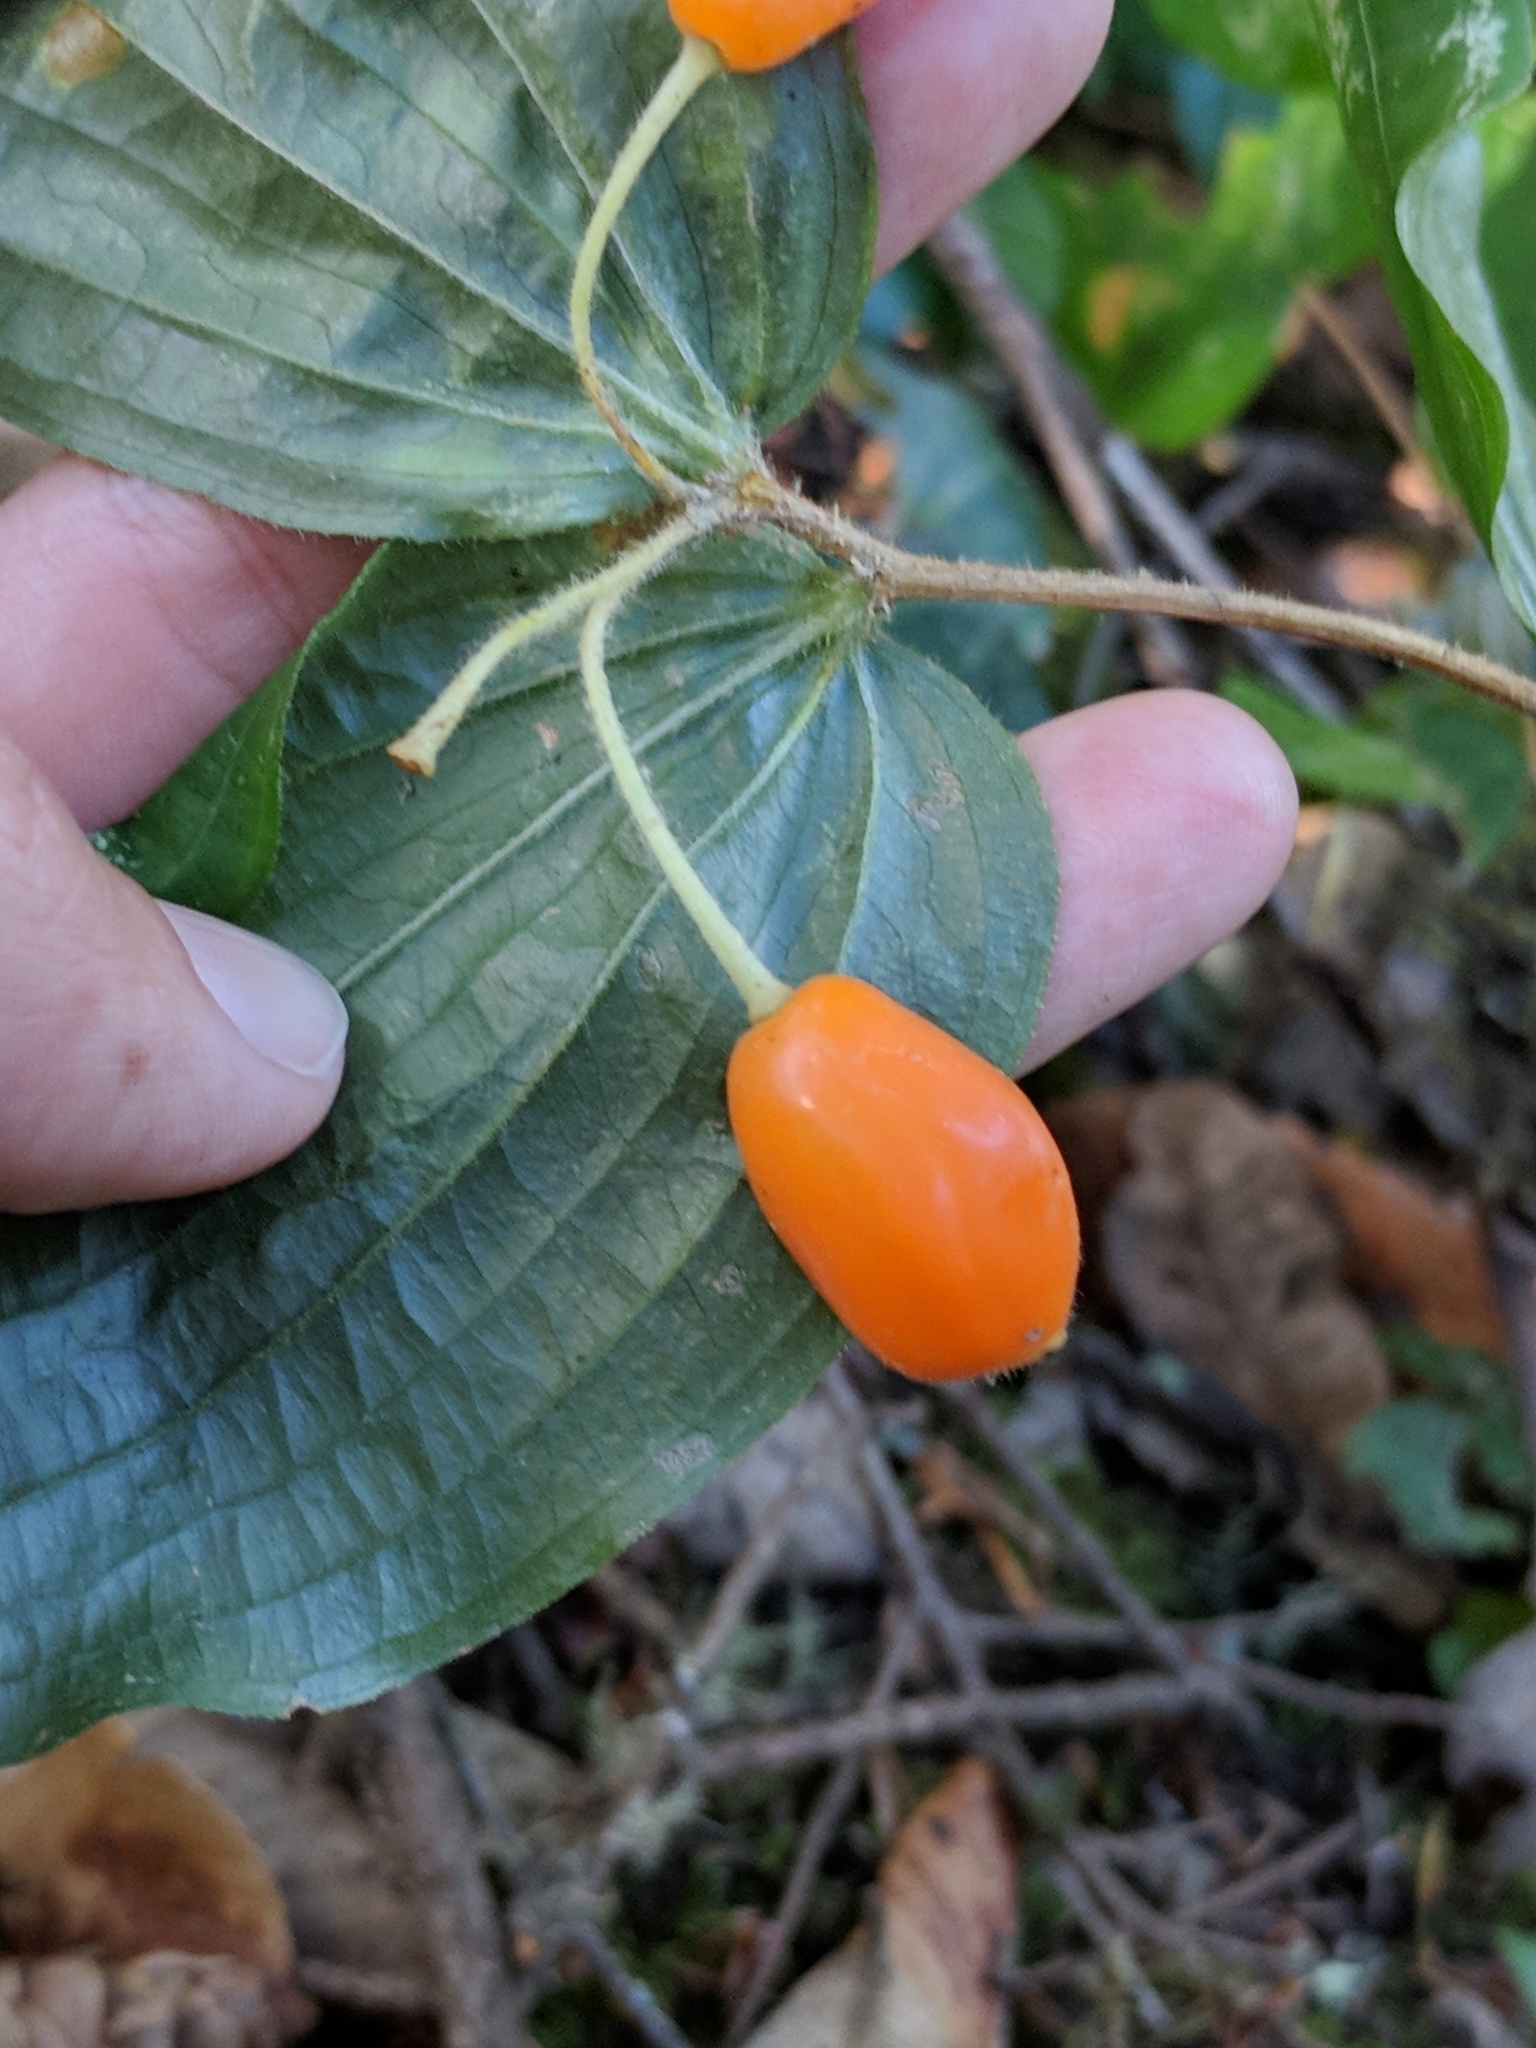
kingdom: Plantae
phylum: Tracheophyta
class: Liliopsida
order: Liliales
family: Liliaceae
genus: Prosartes
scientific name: Prosartes smithii
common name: Fairy-lantern
